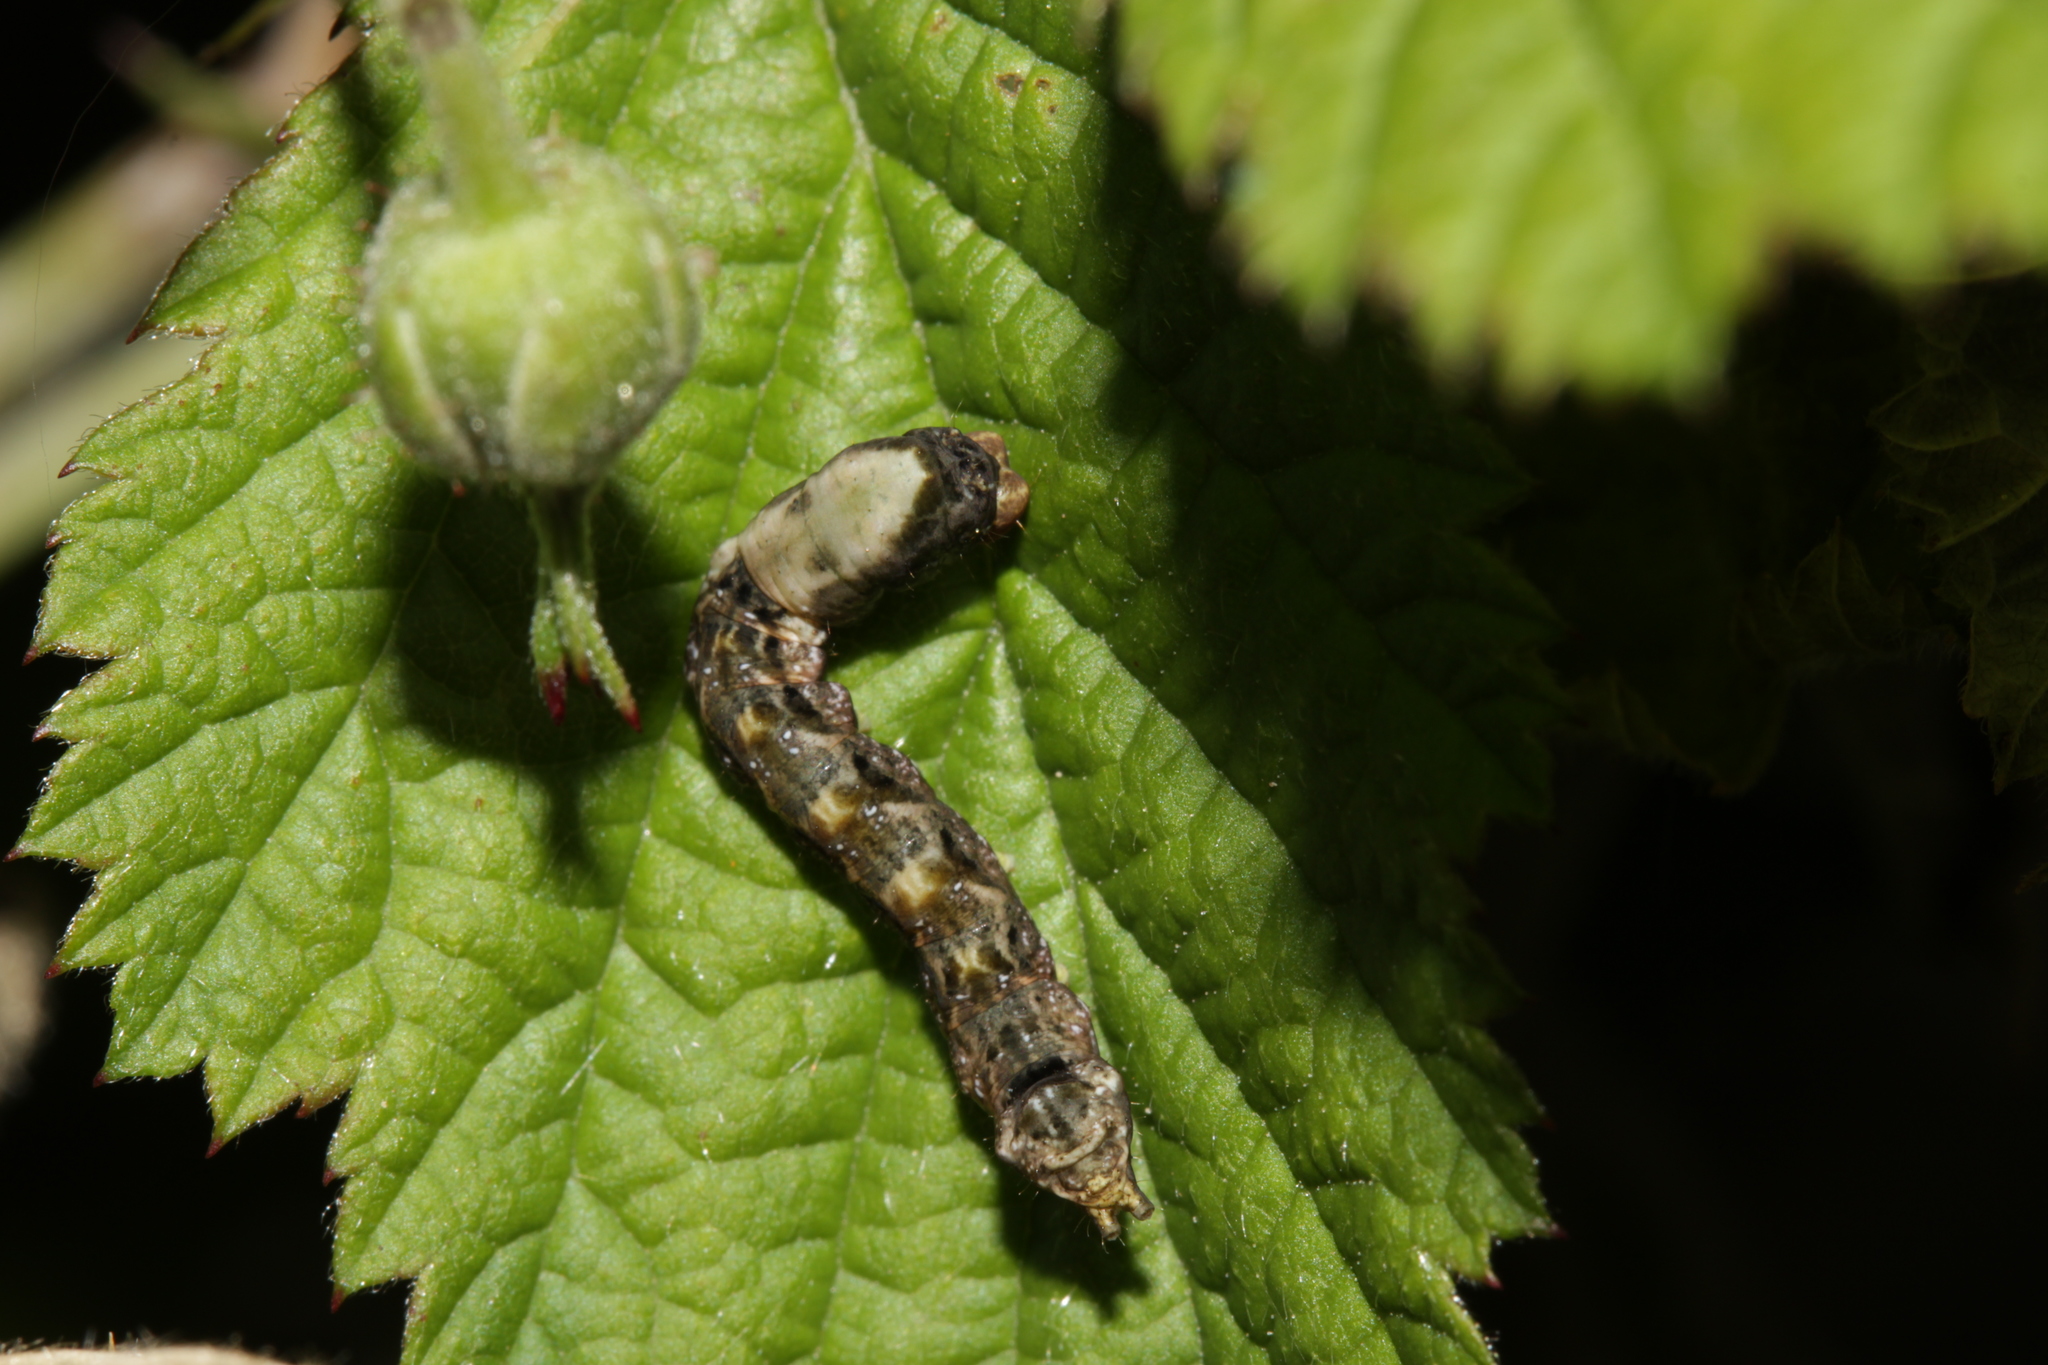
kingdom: Animalia
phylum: Arthropoda
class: Insecta
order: Lepidoptera
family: Drepanidae
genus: Thyatira
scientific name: Thyatira batis
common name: Peach blossom
